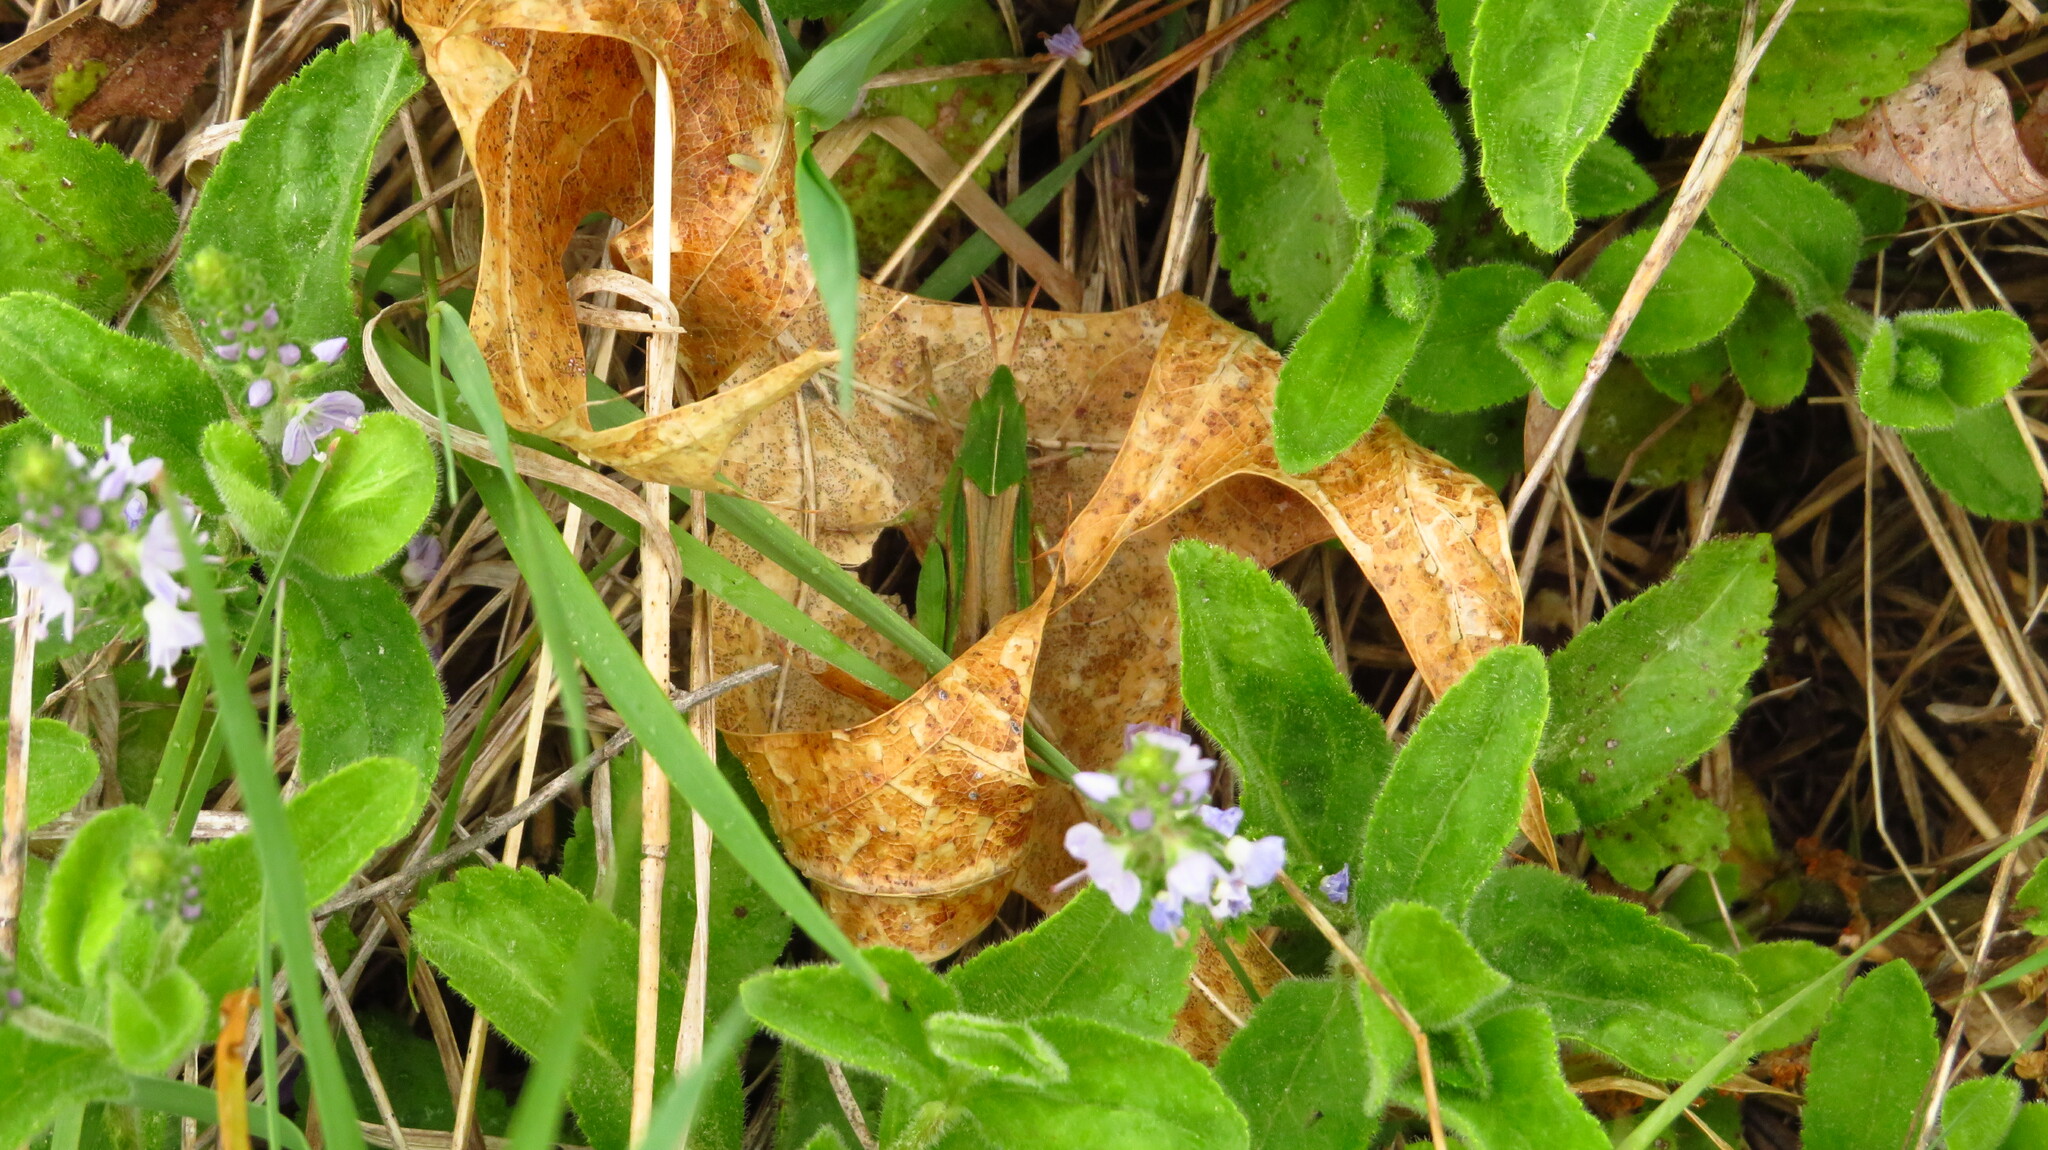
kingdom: Animalia
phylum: Arthropoda
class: Insecta
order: Orthoptera
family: Acrididae
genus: Chortophaga
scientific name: Chortophaga viridifasciata
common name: Green-striped grasshopper
